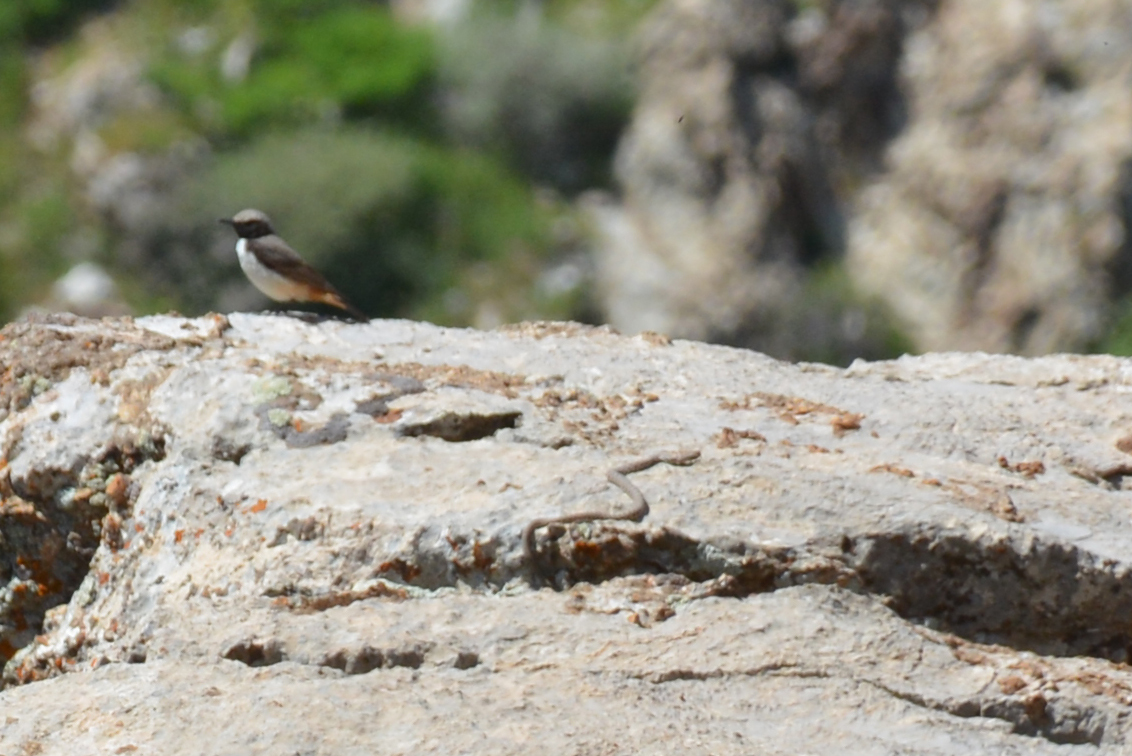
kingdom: Animalia
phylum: Chordata
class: Squamata
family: Colubridae
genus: Hemorrhois
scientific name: Hemorrhois nummifer
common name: Asian racer
